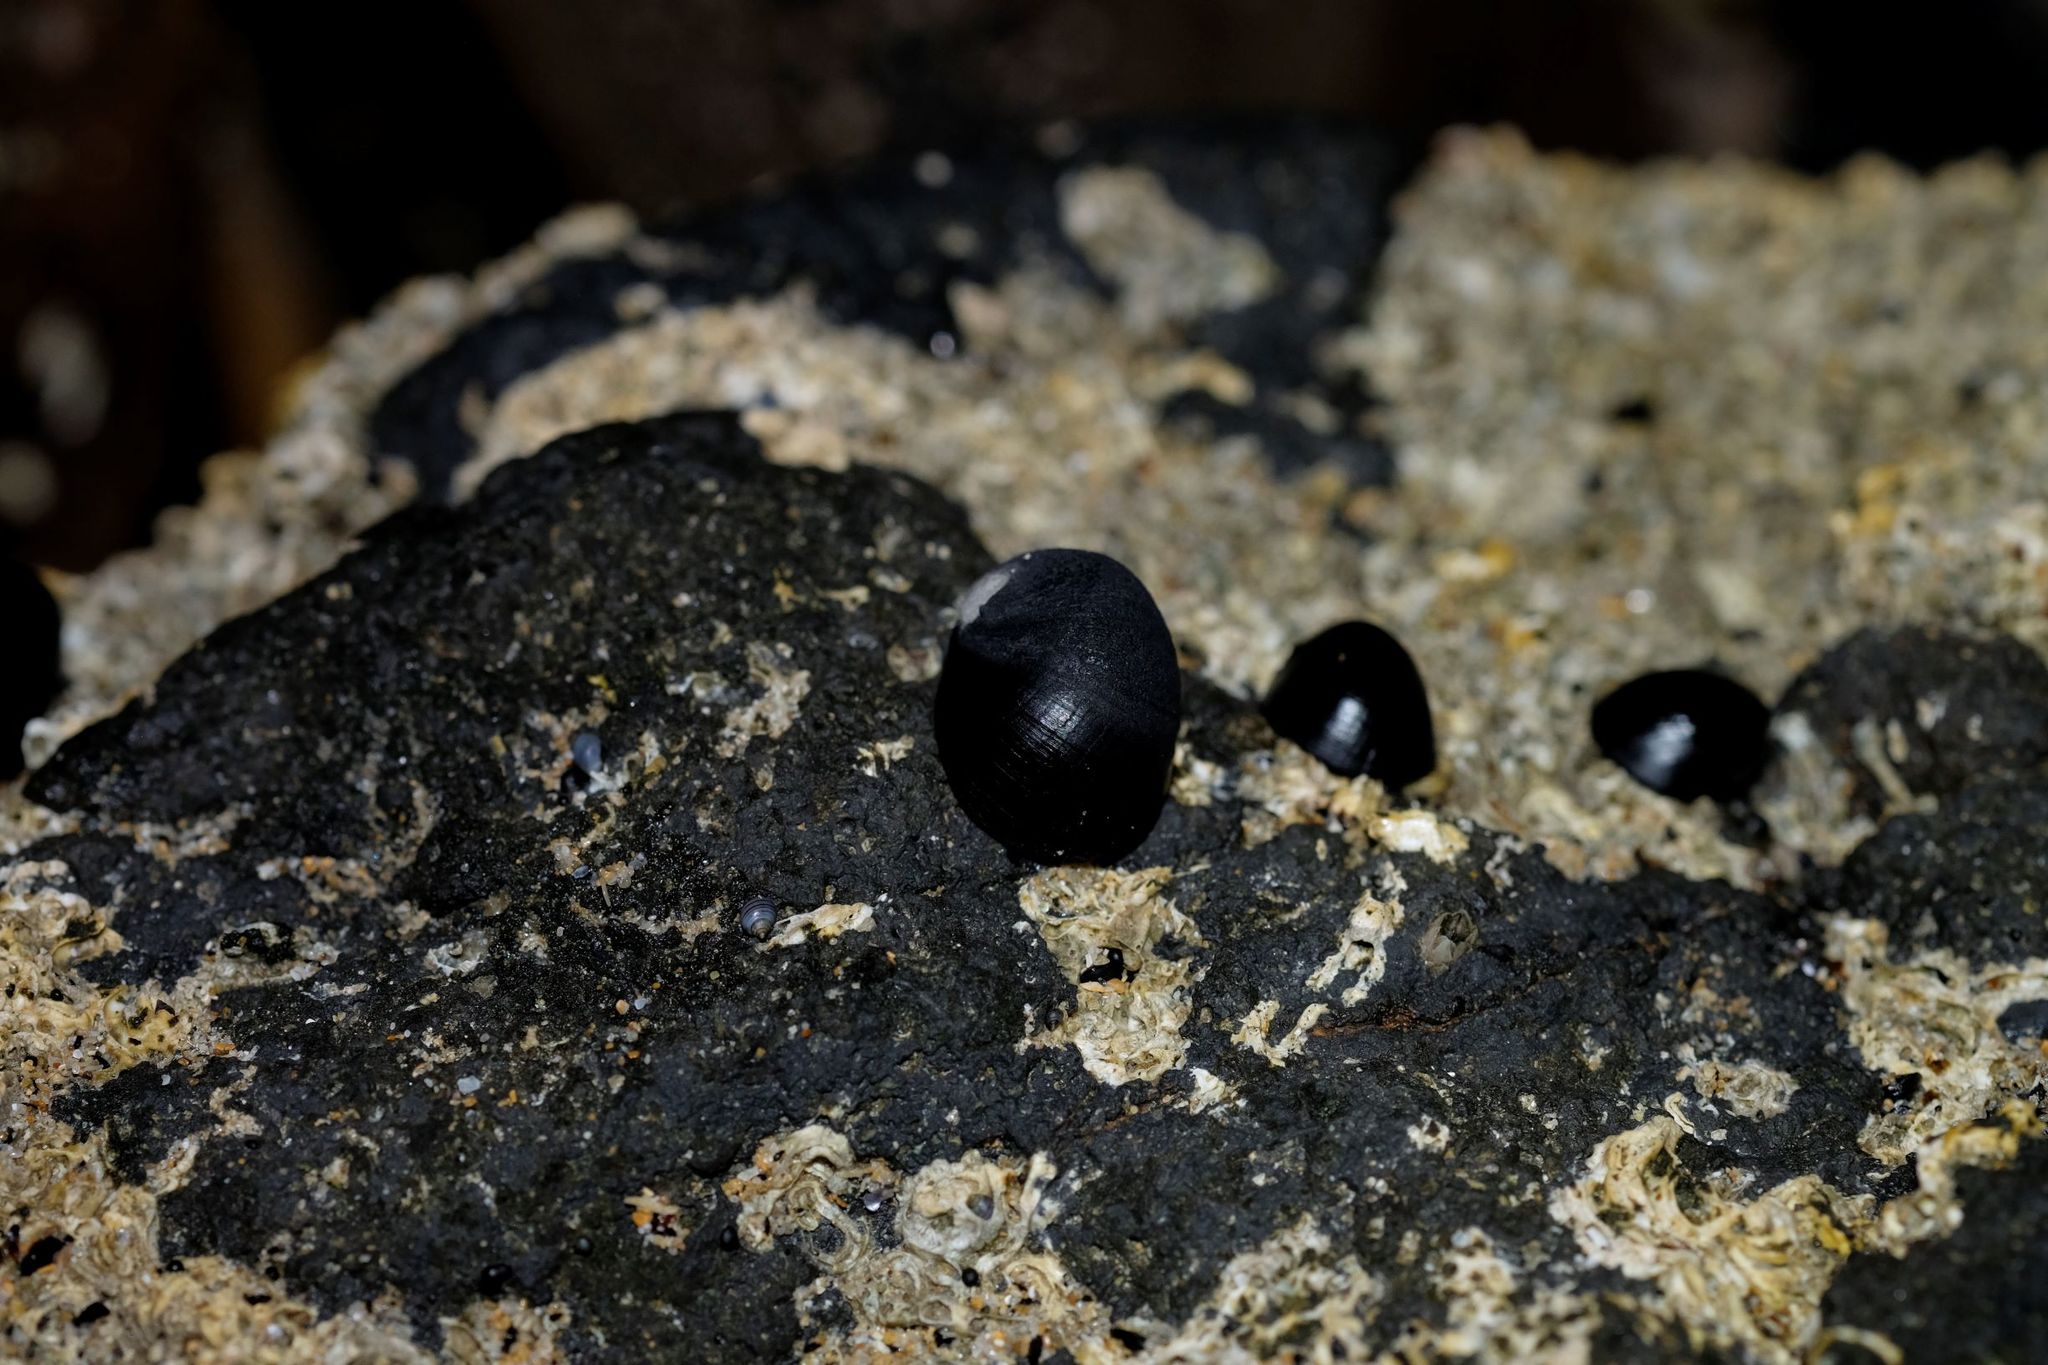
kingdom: Animalia
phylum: Mollusca
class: Gastropoda
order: Cycloneritida
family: Neritidae
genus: Nerita
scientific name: Nerita atramentosa
